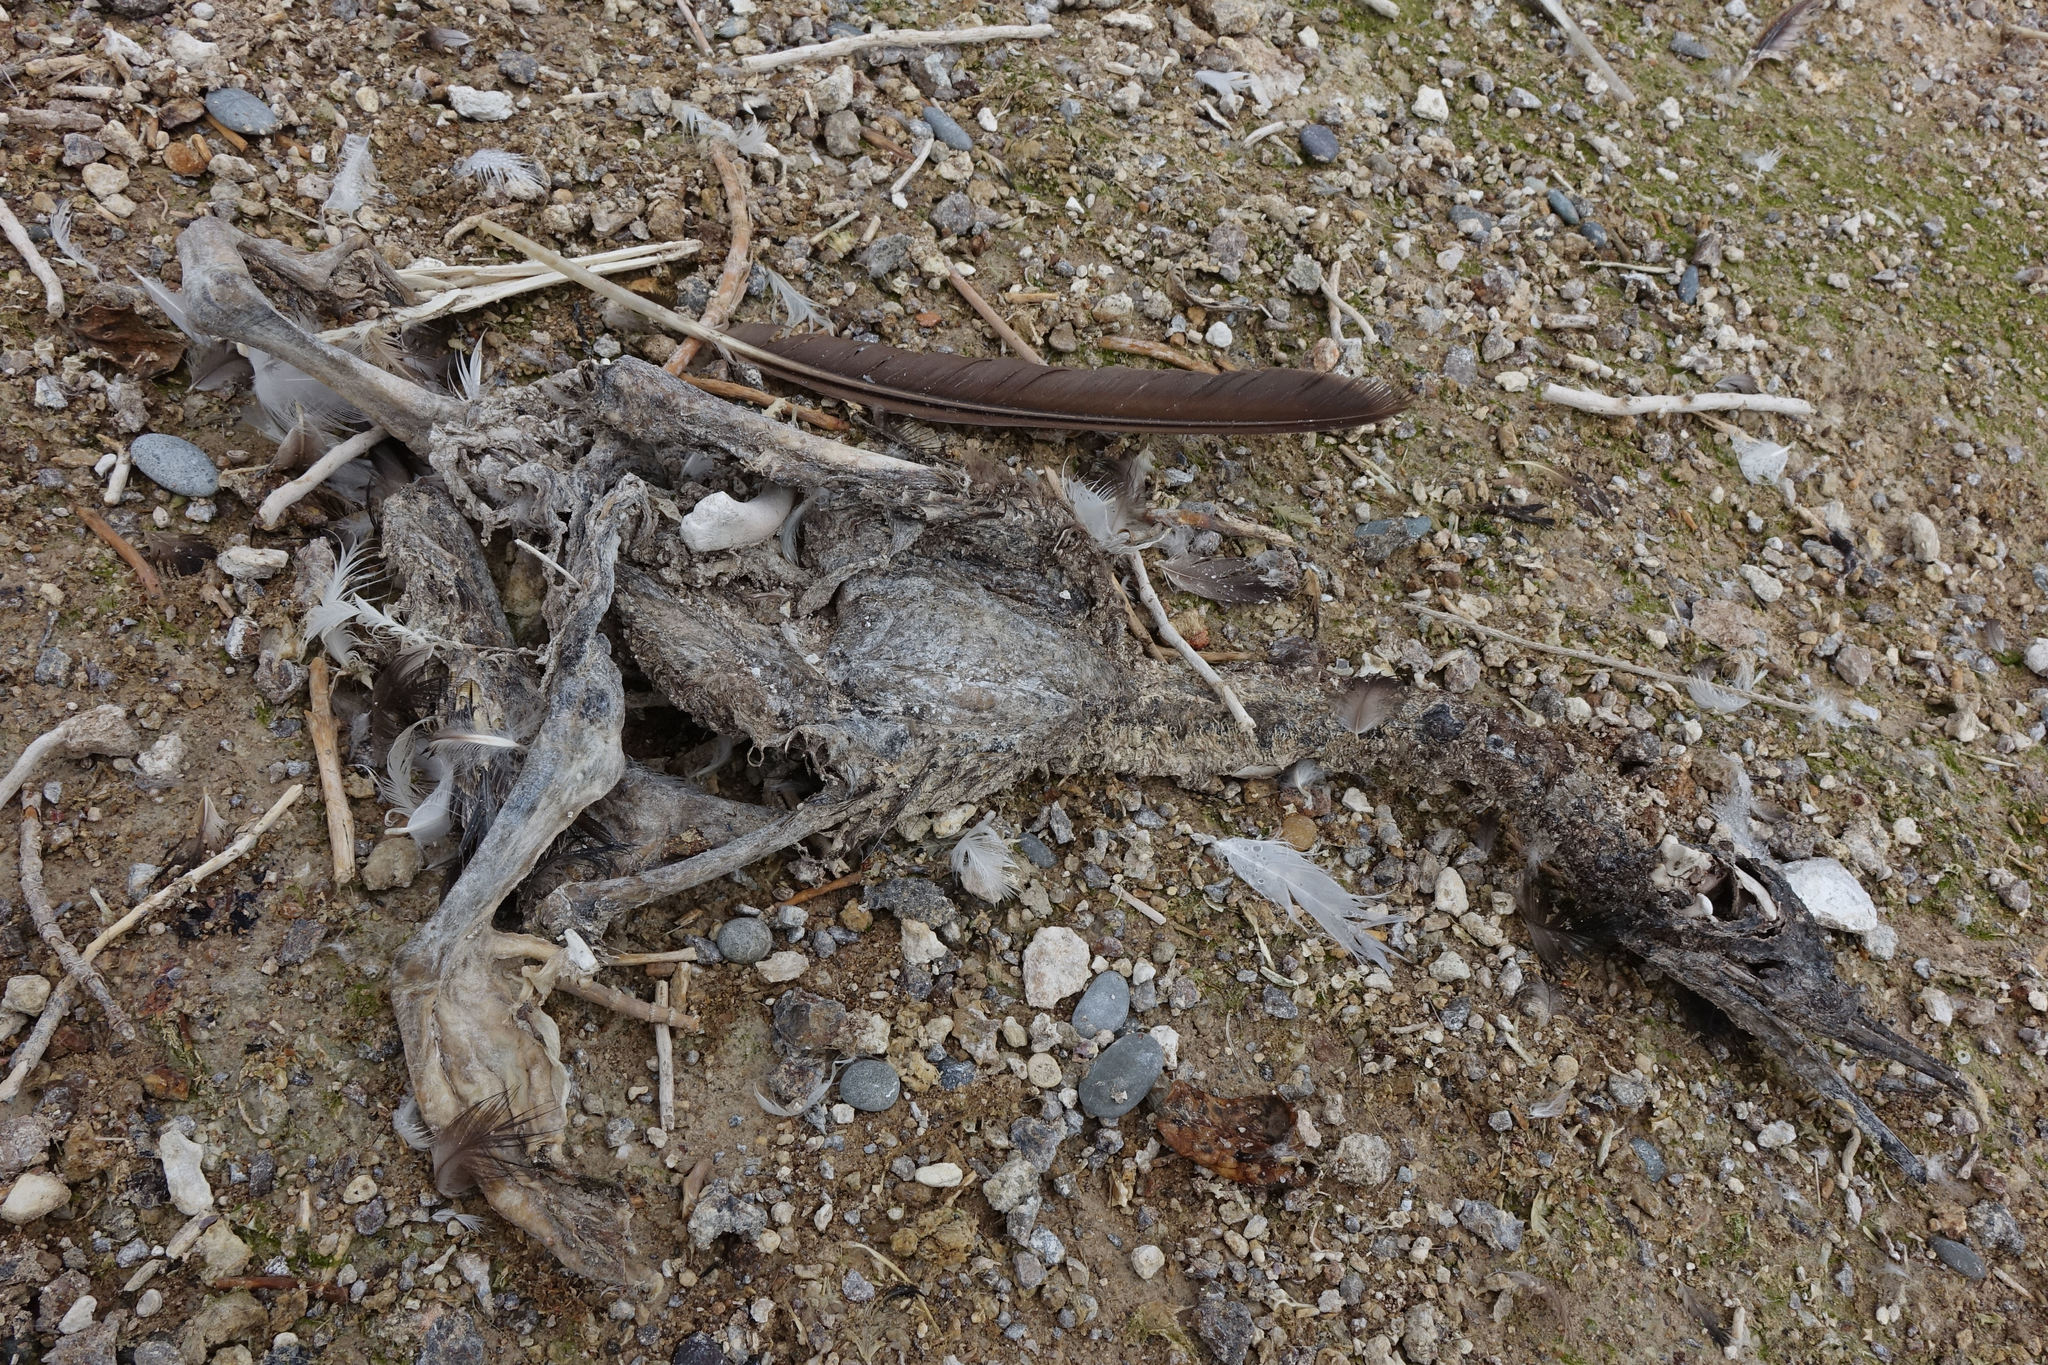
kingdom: Animalia
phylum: Chordata
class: Aves
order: Suliformes
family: Phalacrocoracidae
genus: Leucocarbo
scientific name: Leucocarbo chalconotus
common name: Stewart shag
